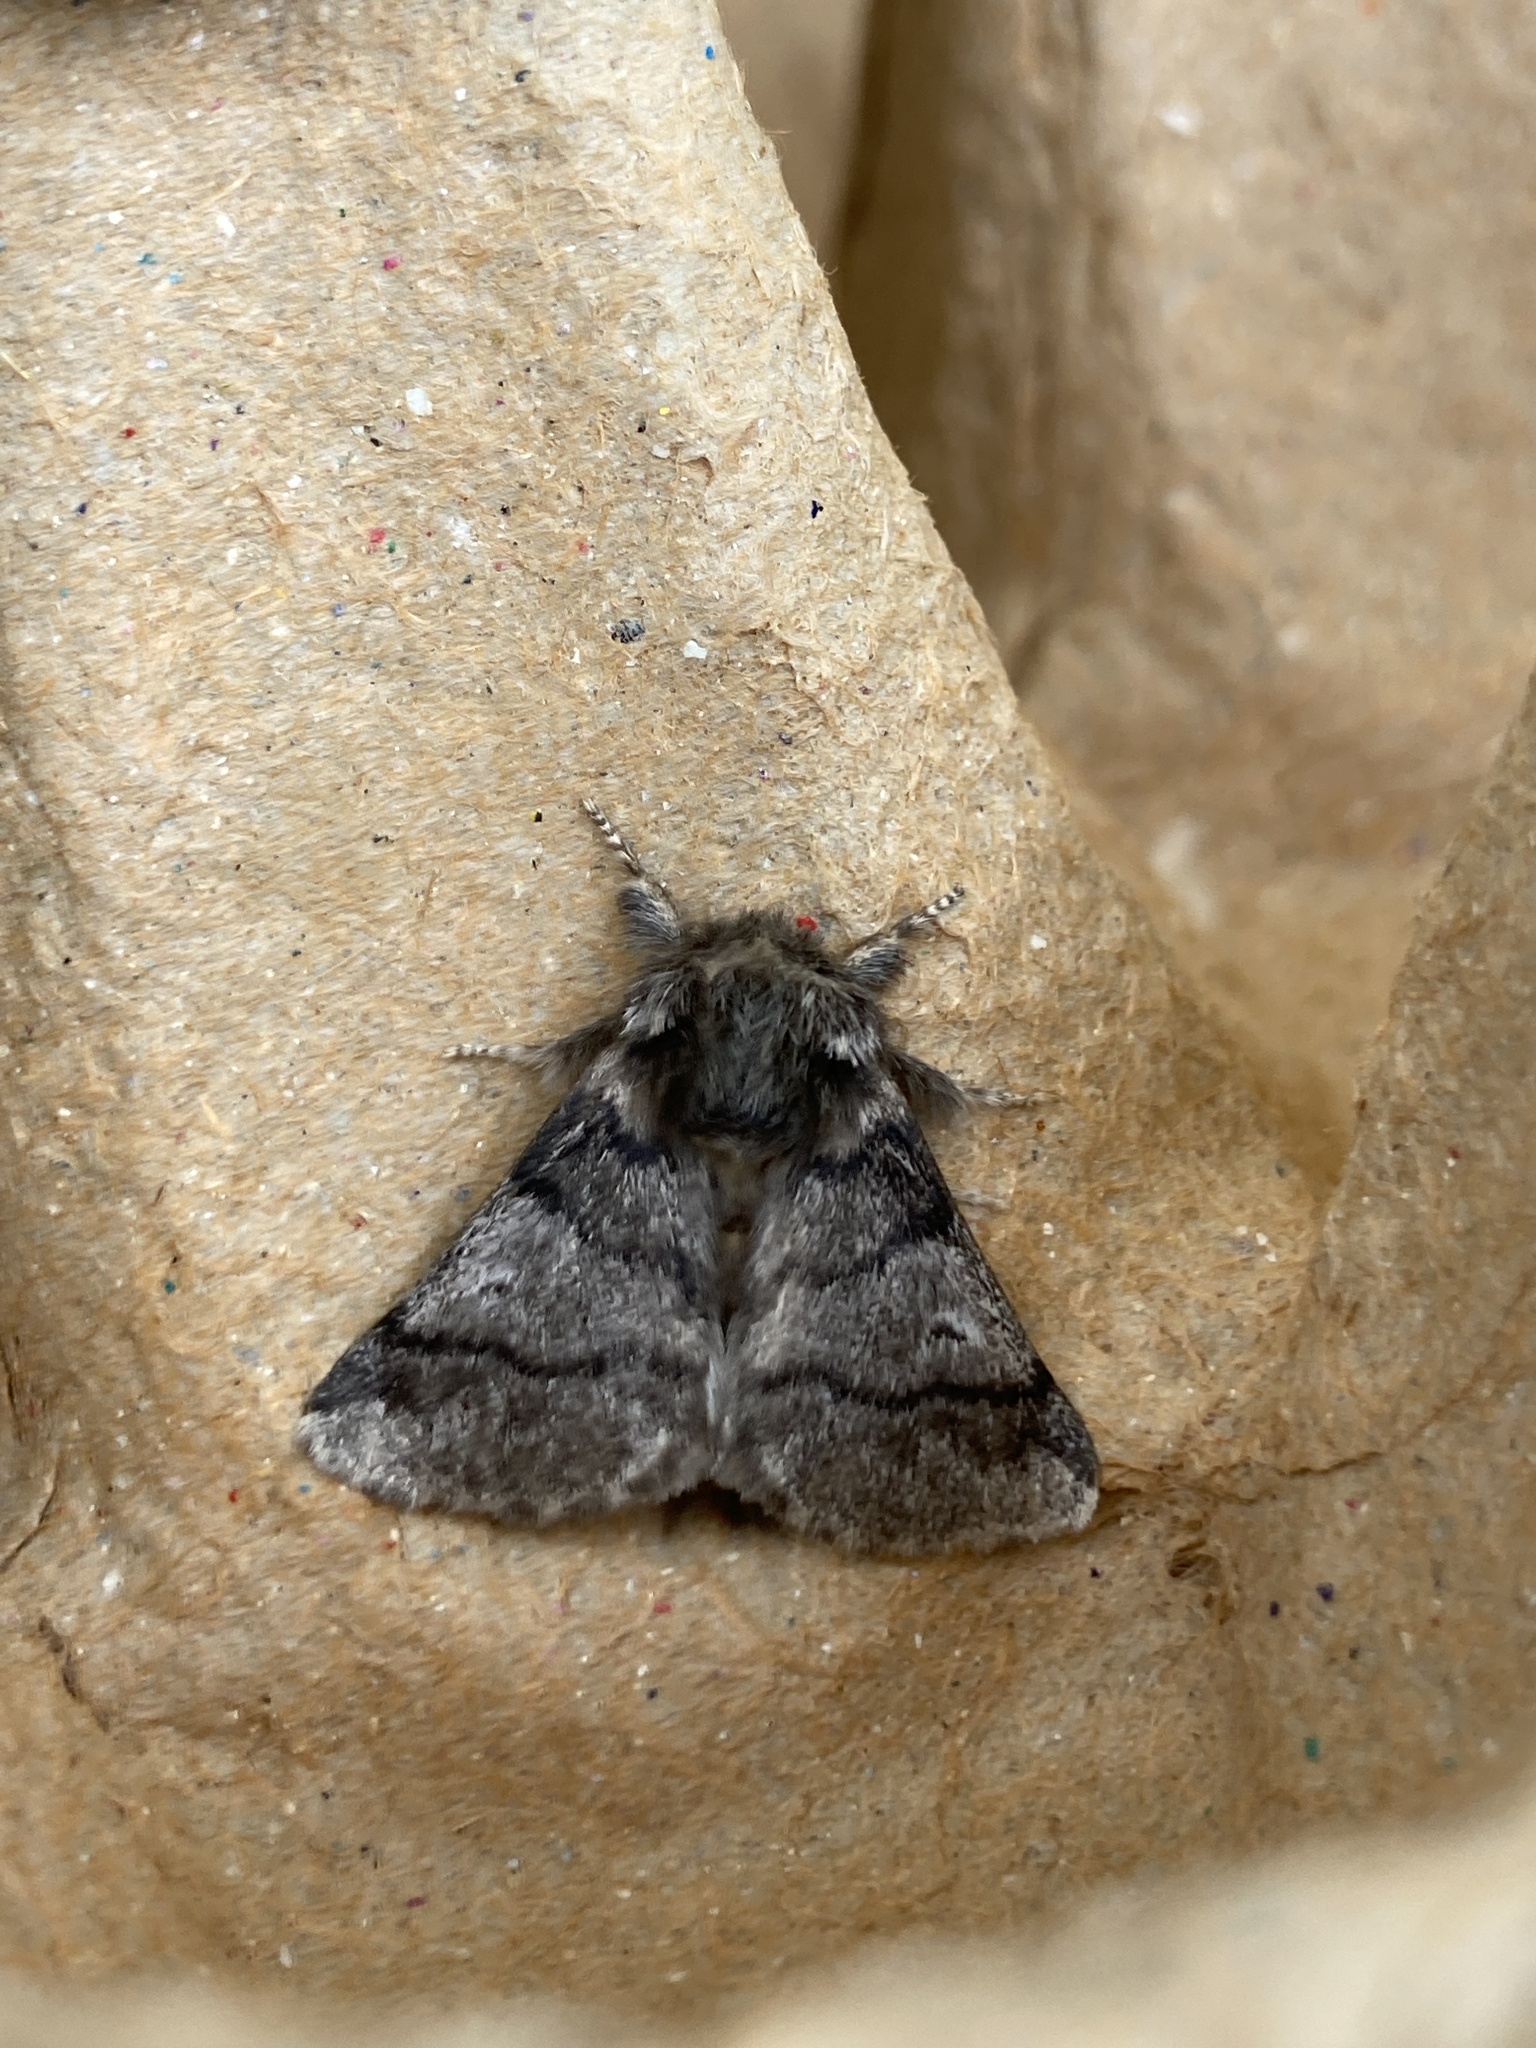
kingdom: Animalia
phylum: Arthropoda
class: Insecta
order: Lepidoptera
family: Notodontidae
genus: Thaumetopoea
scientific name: Thaumetopoea processionea
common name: Oak processionea
